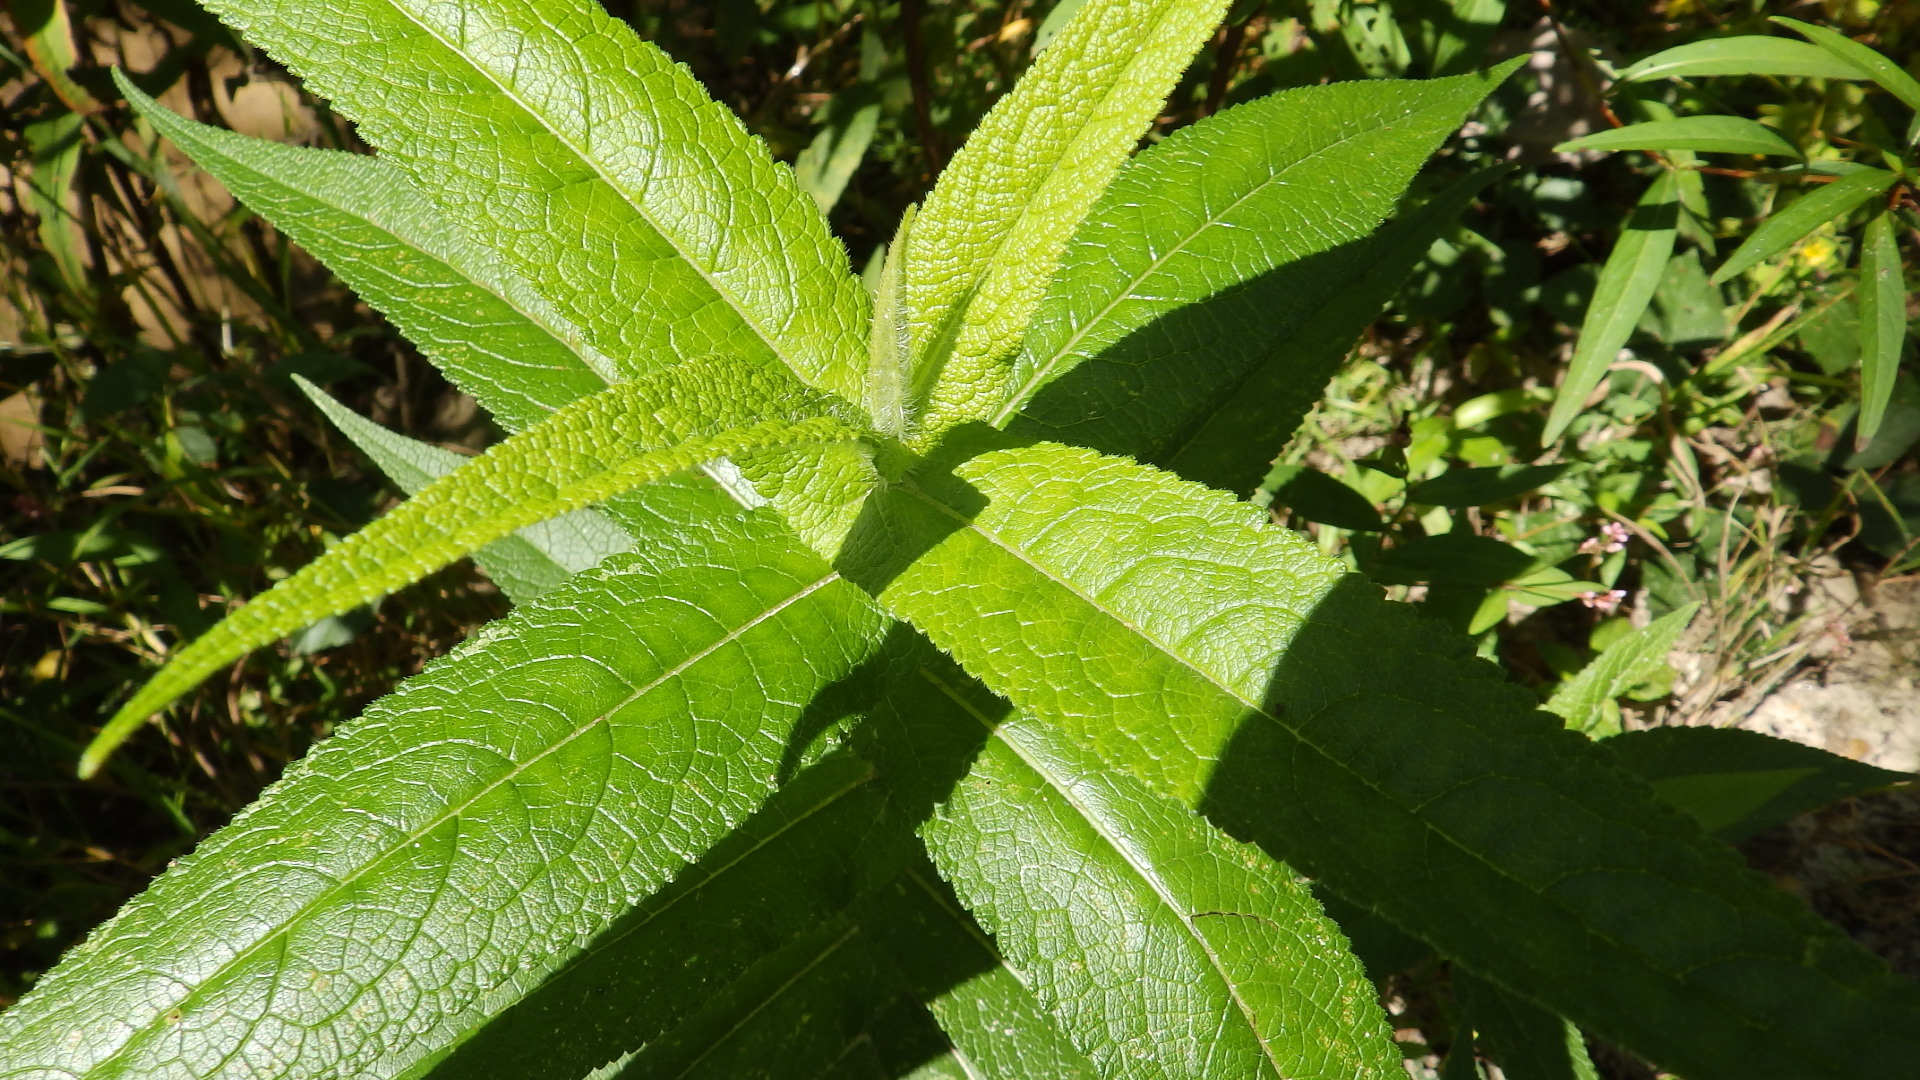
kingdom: Plantae
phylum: Tracheophyta
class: Magnoliopsida
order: Asterales
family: Asteraceae
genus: Eupatorium
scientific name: Eupatorium perfoliatum
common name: Boneset
